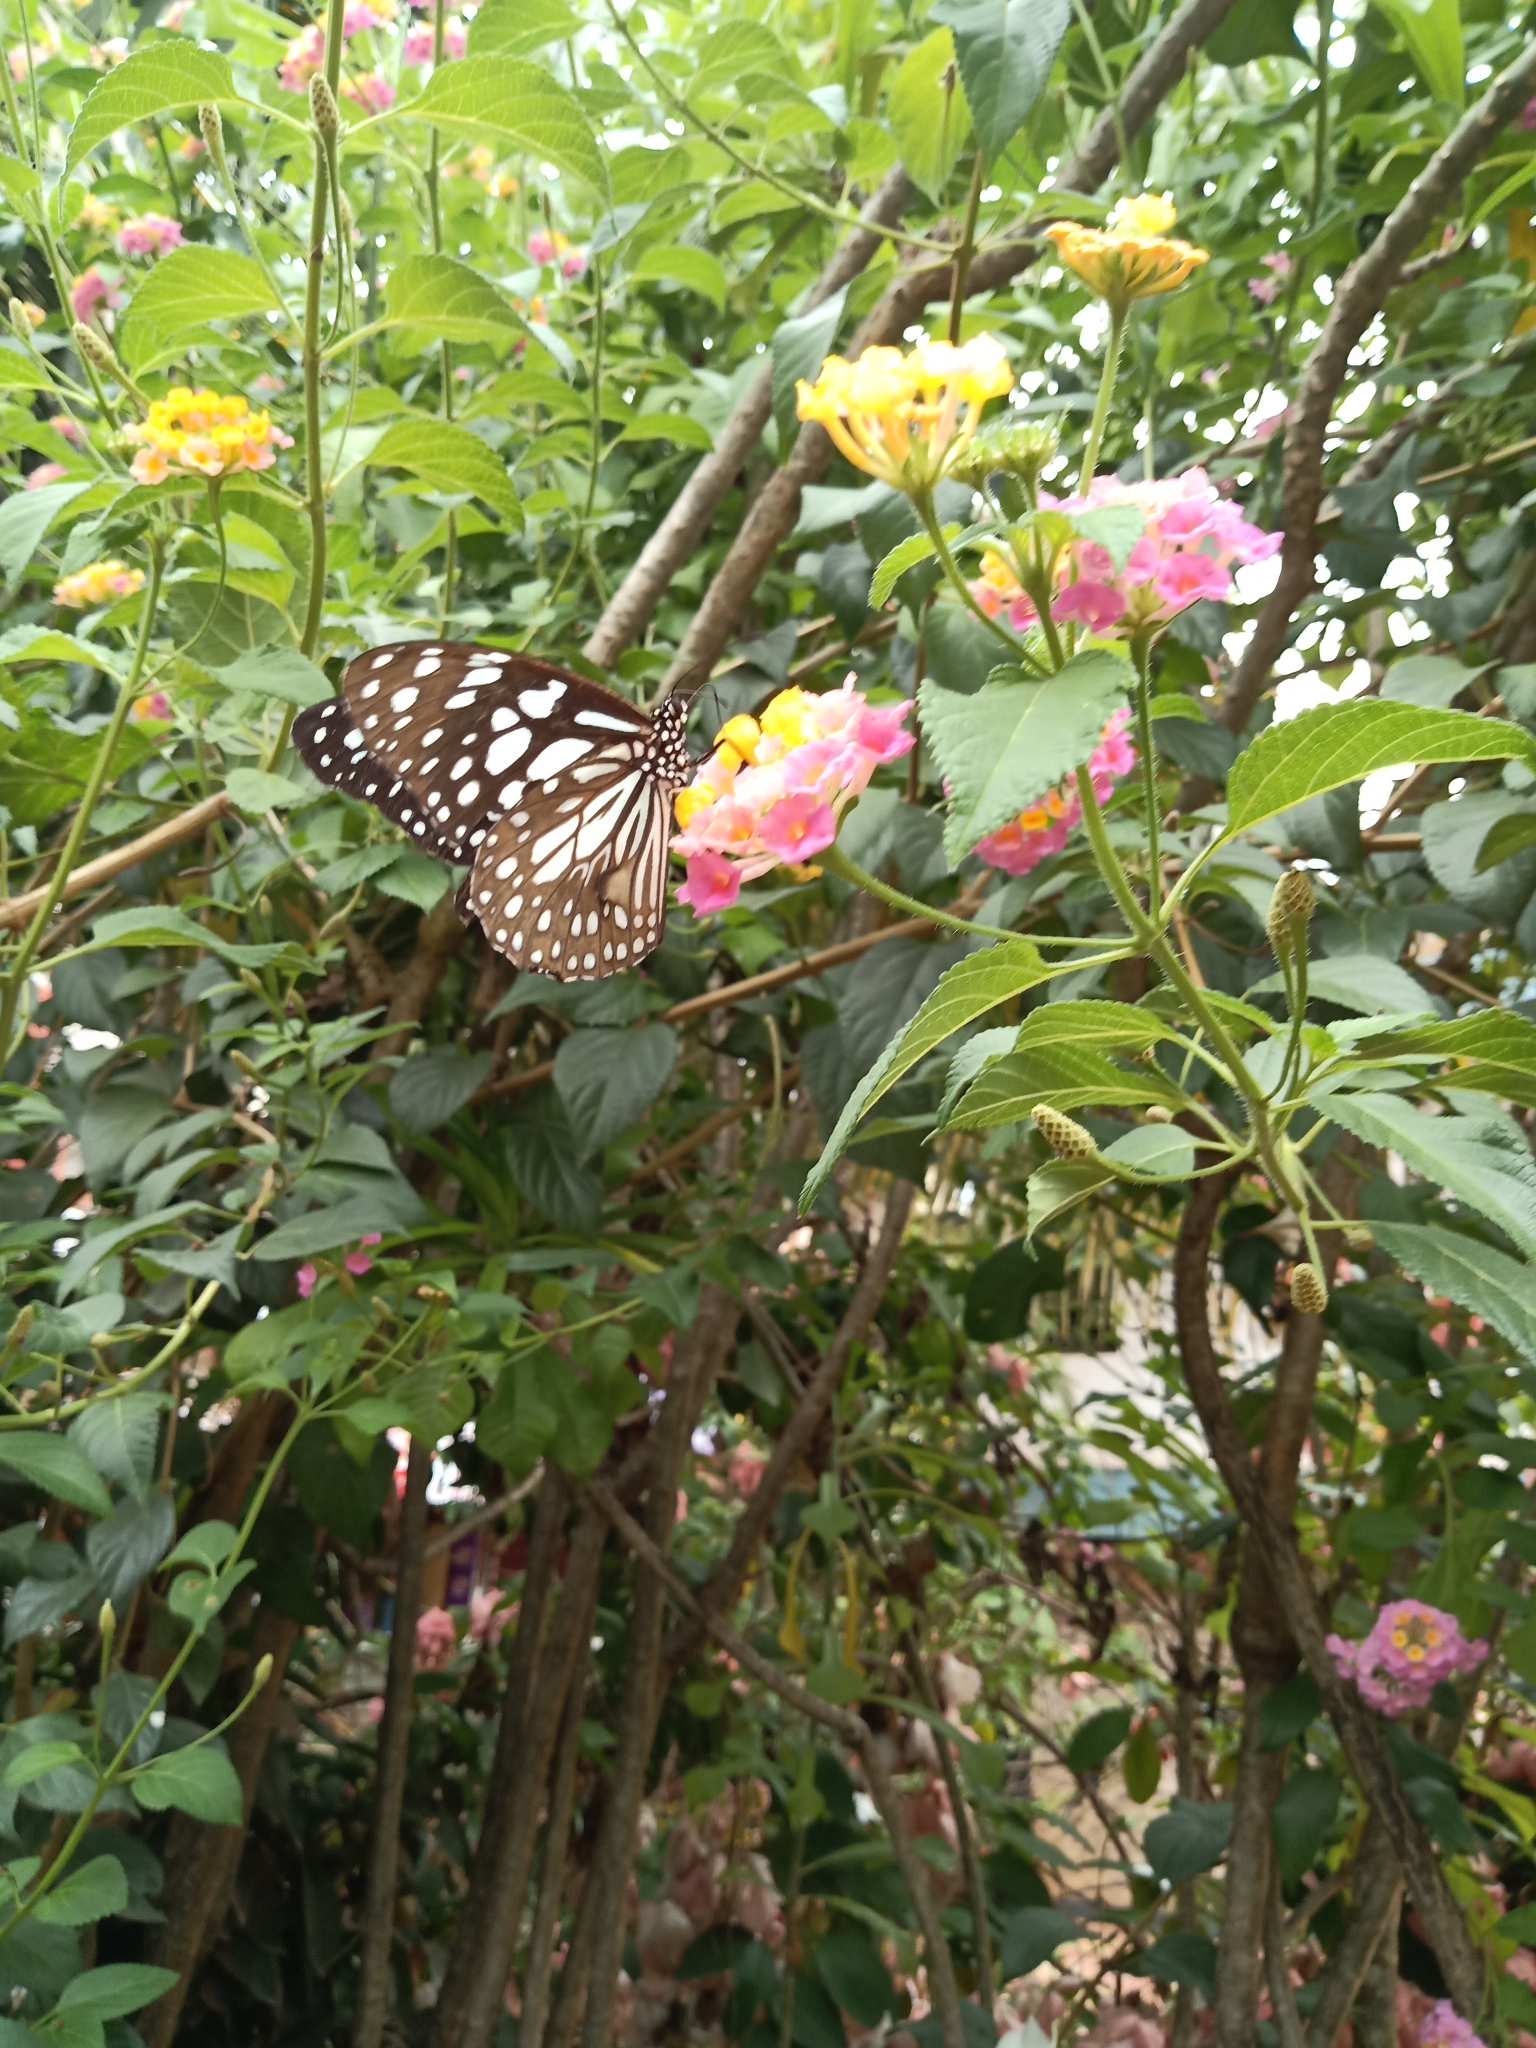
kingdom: Animalia
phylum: Arthropoda
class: Insecta
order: Lepidoptera
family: Nymphalidae
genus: Tirumala
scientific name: Tirumala limniace
